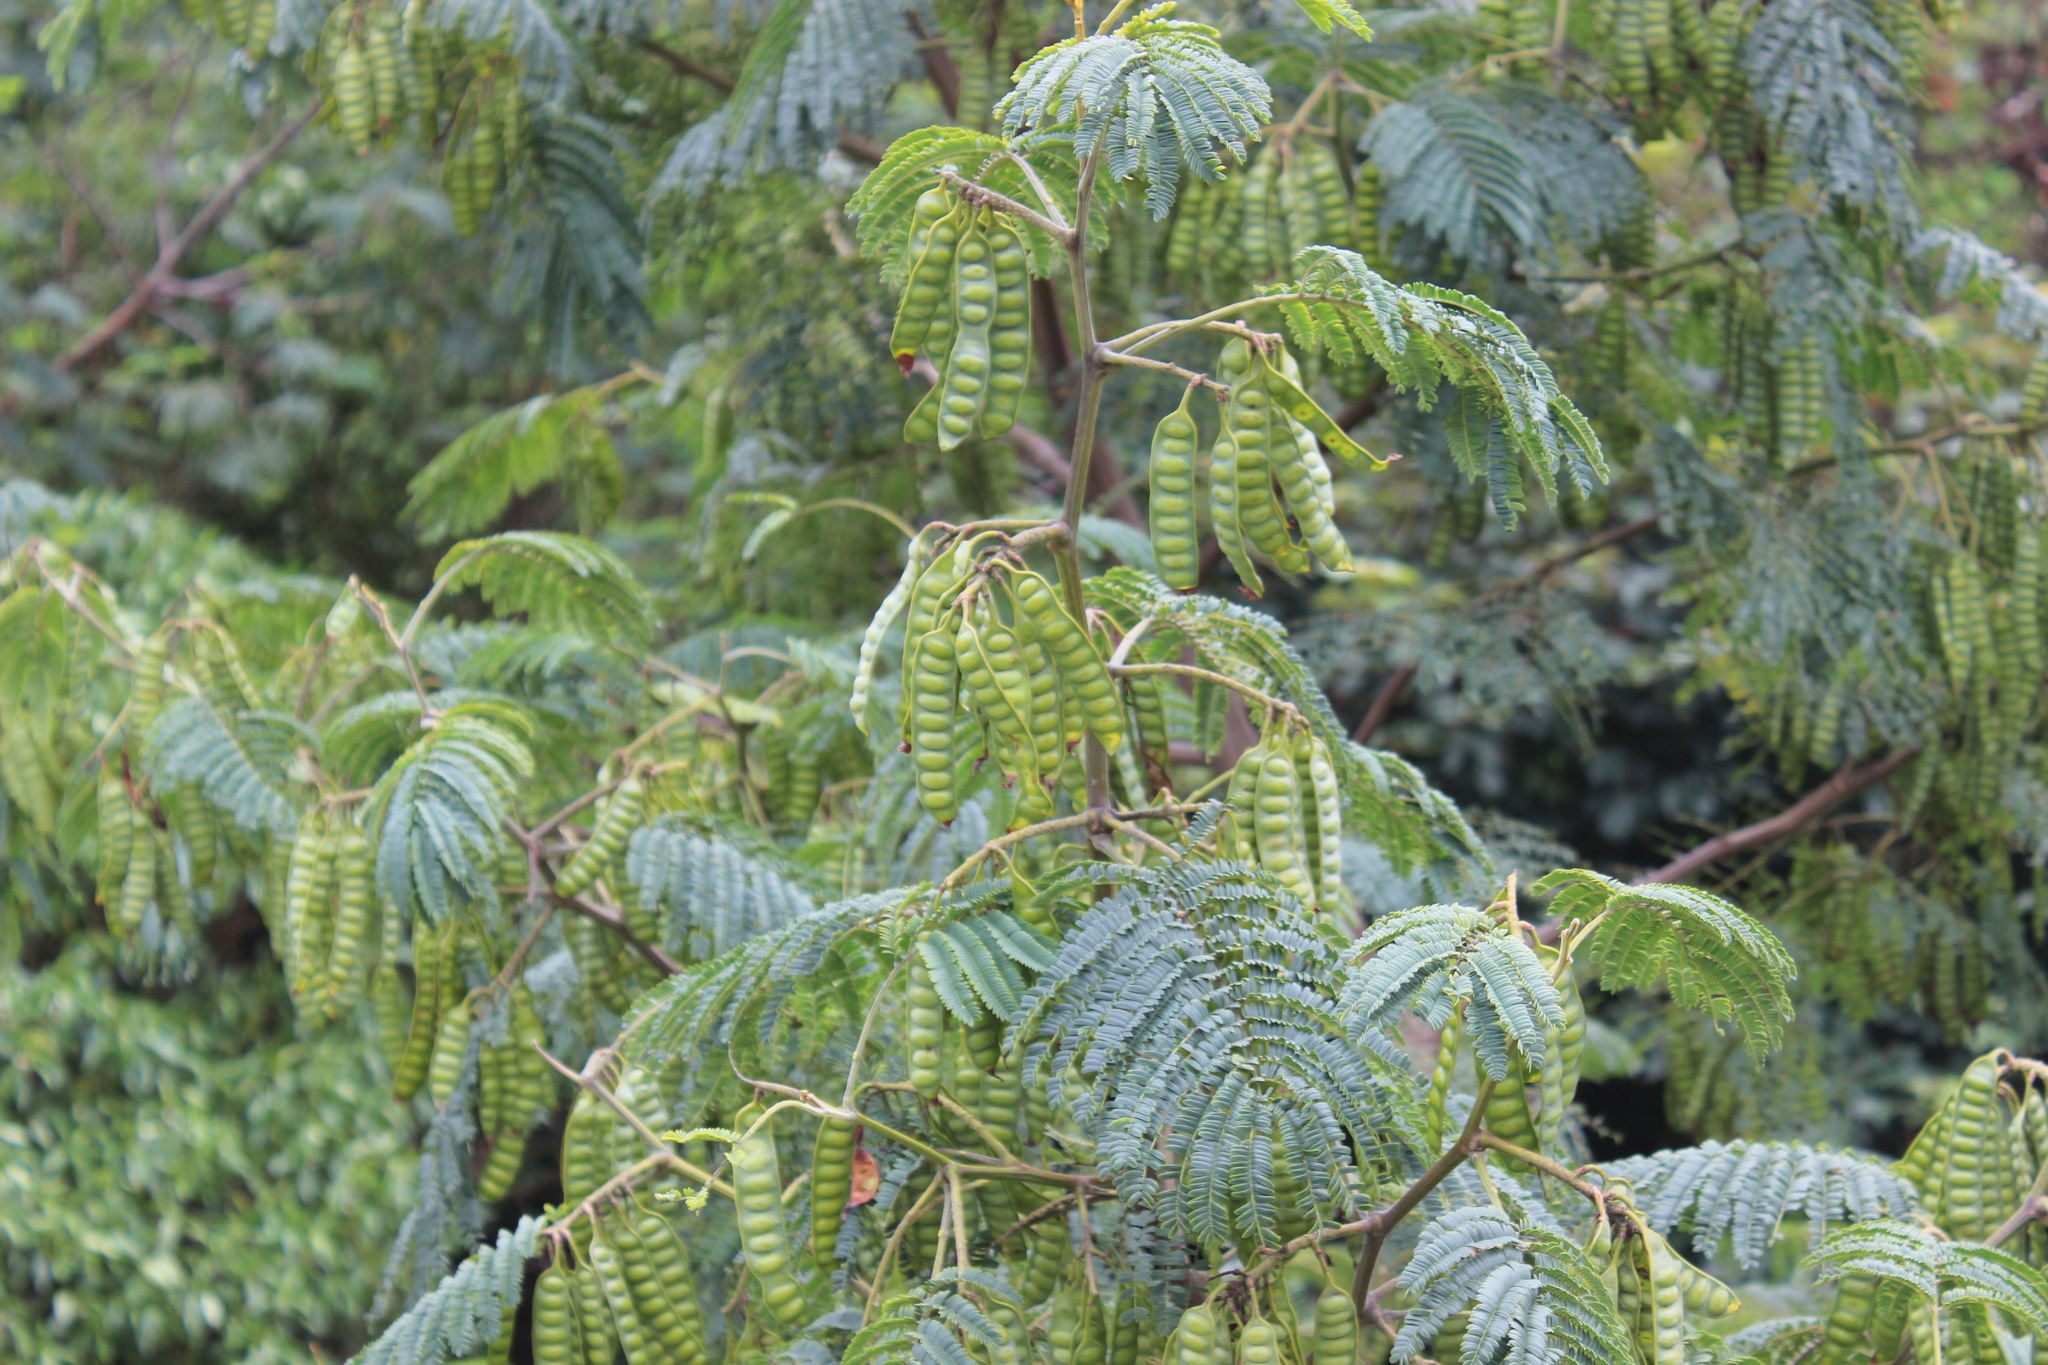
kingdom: Plantae
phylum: Tracheophyta
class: Magnoliopsida
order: Fabales
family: Fabaceae
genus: Paraserianthes
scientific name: Paraserianthes lophantha
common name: Plume albizia
